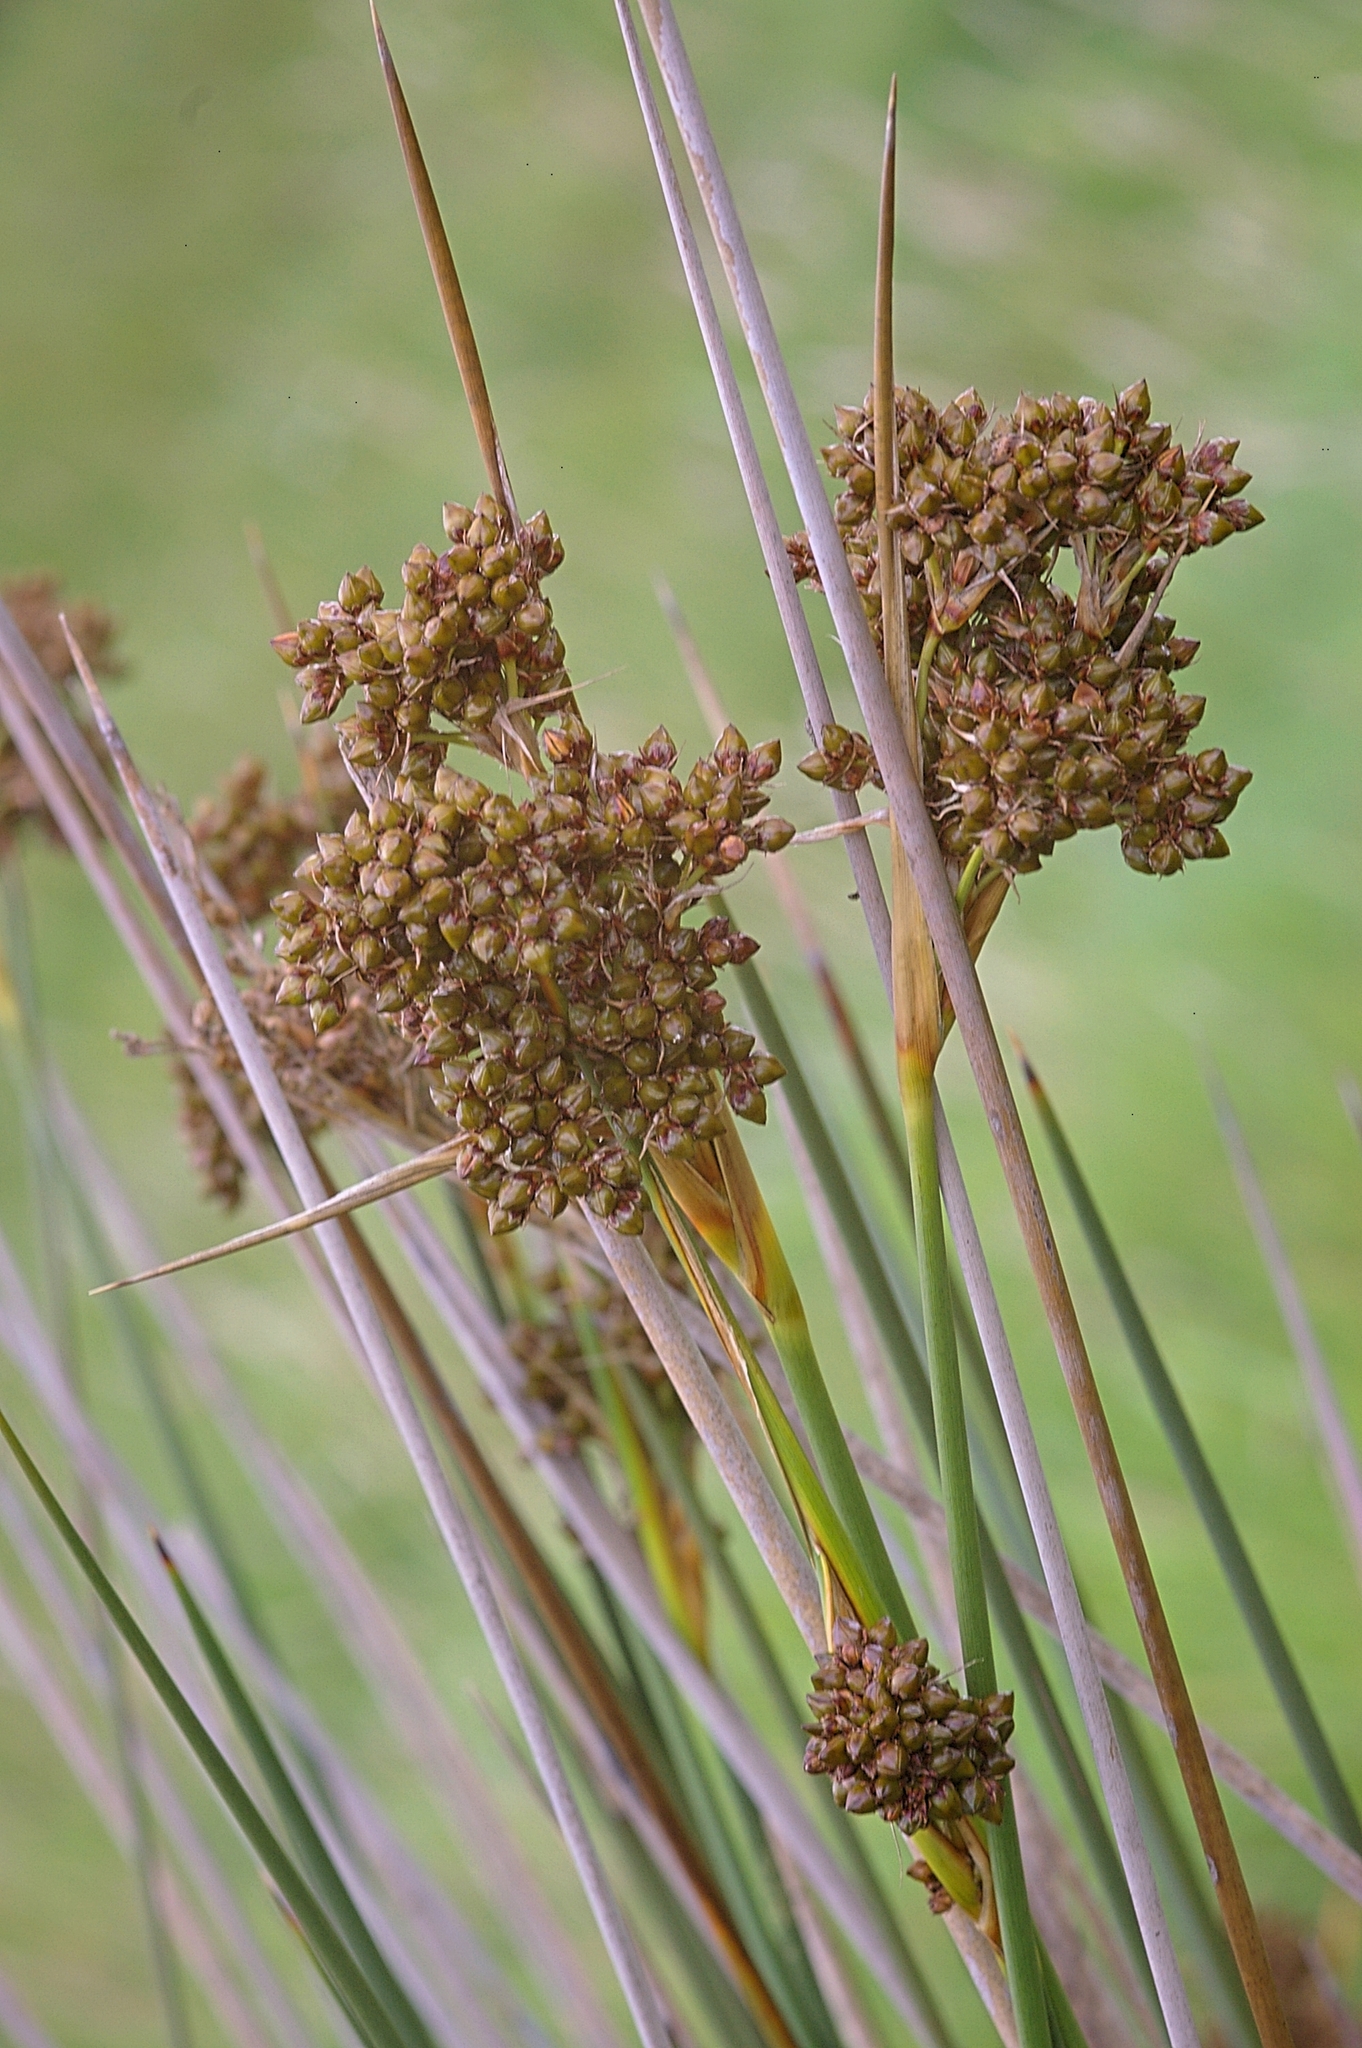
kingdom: Plantae
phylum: Tracheophyta
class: Liliopsida
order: Poales
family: Juncaceae
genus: Juncus
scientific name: Juncus acutus
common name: Sharp rush
